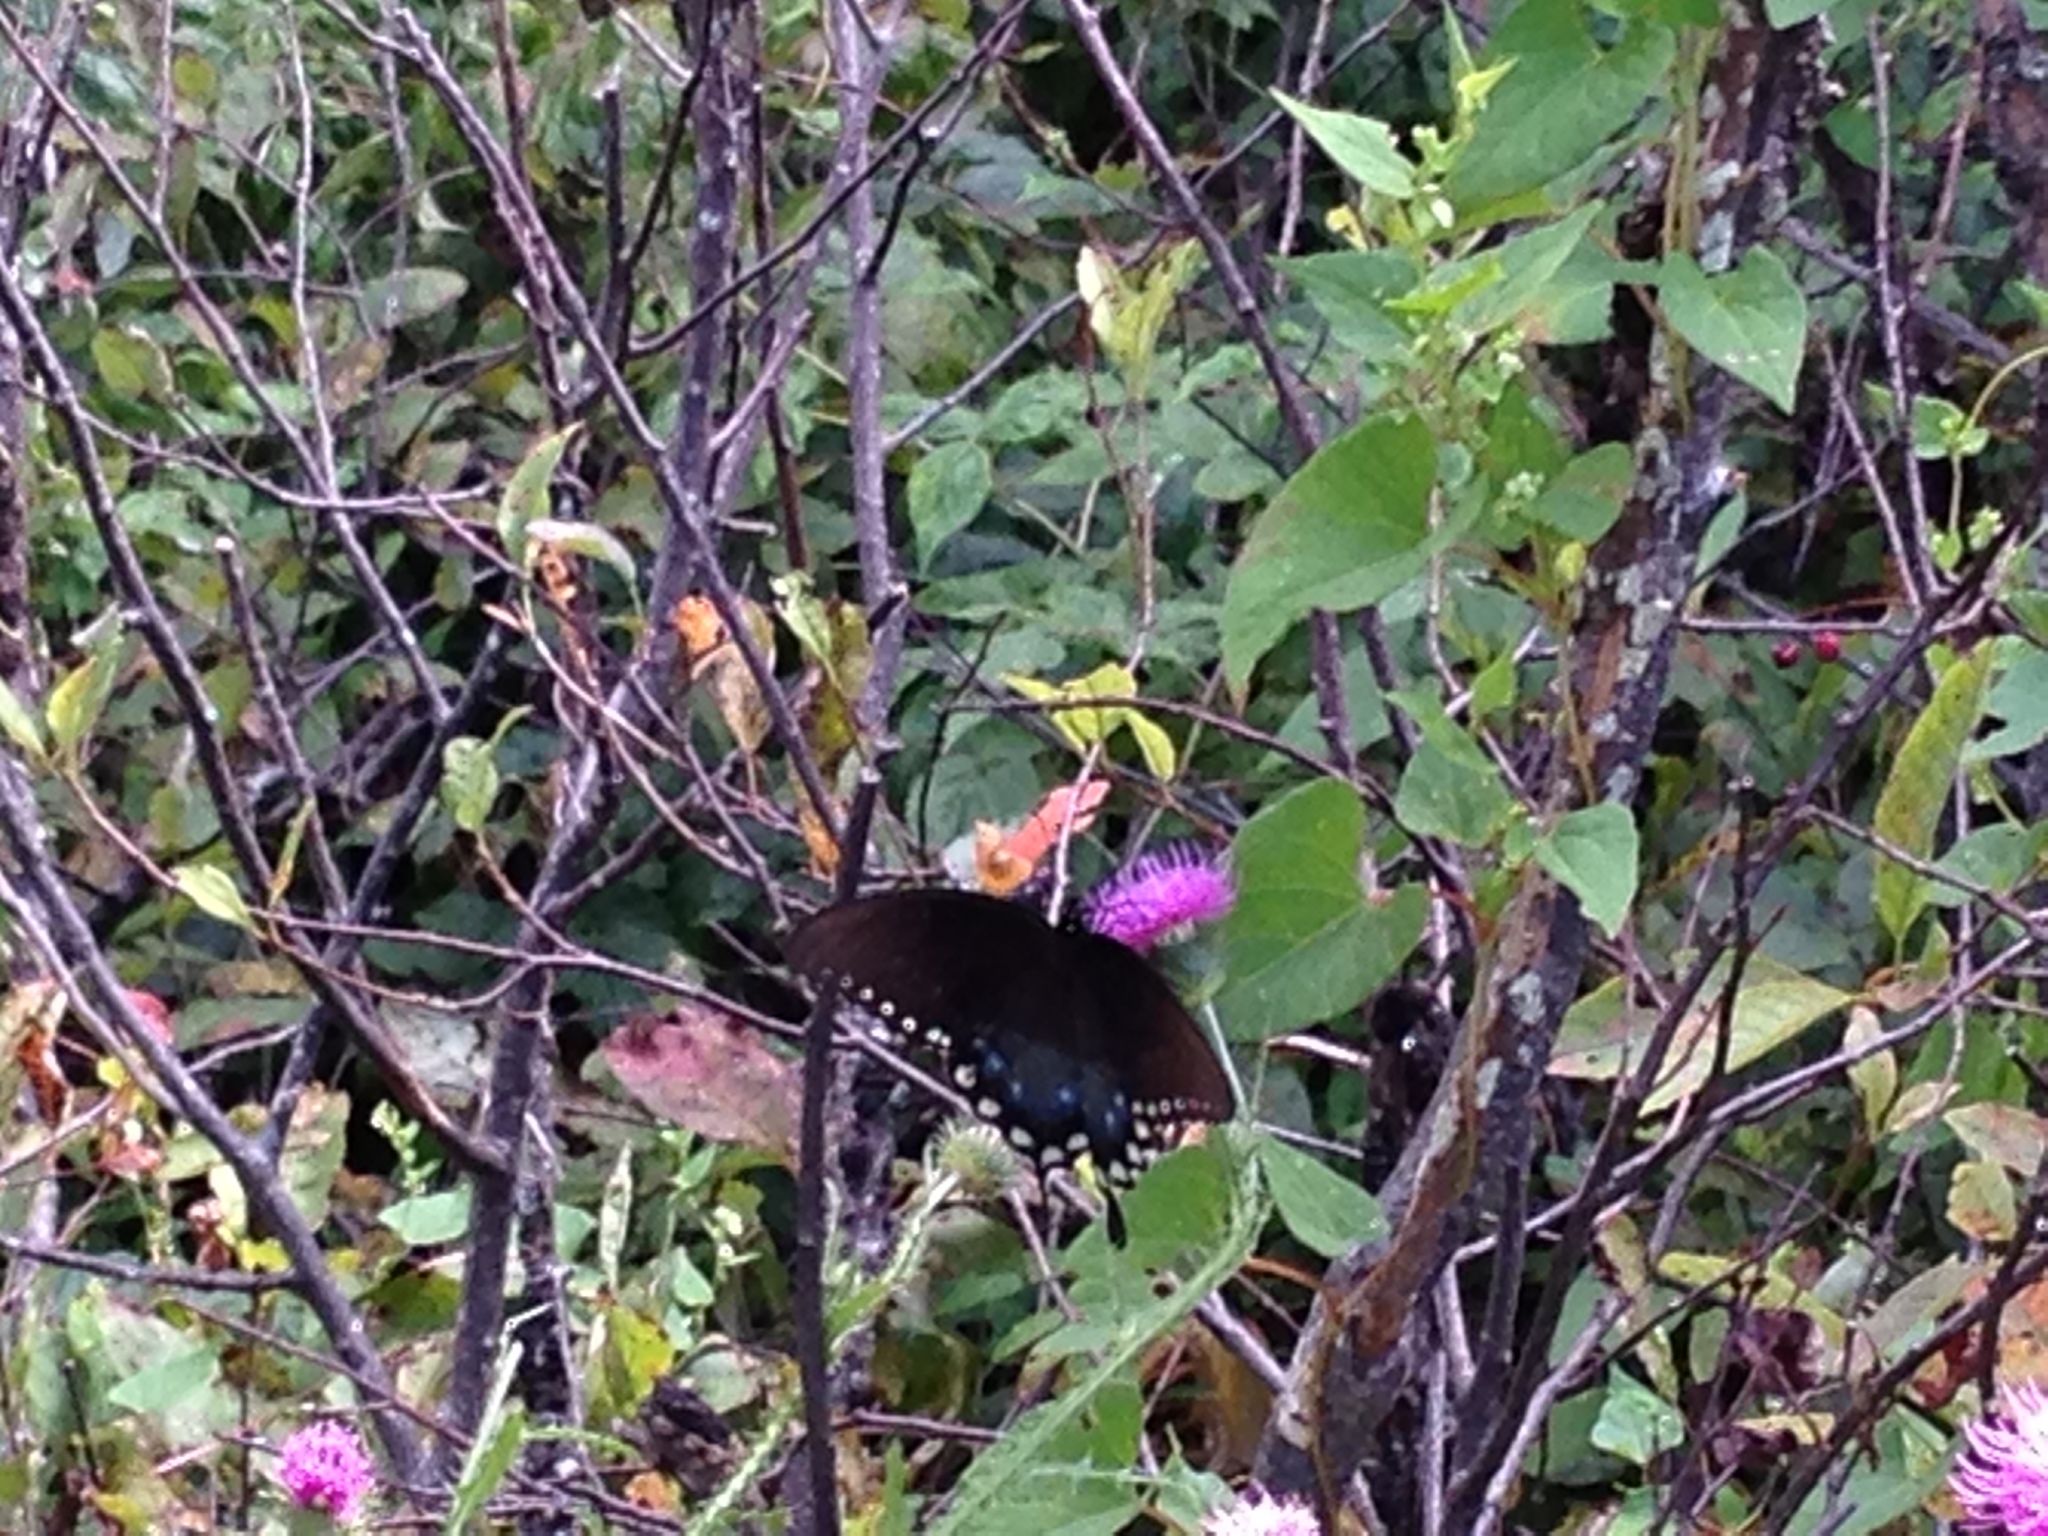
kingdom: Animalia
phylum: Arthropoda
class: Insecta
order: Lepidoptera
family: Papilionidae
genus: Papilio
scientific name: Papilio troilus
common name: Spicebush swallowtail
